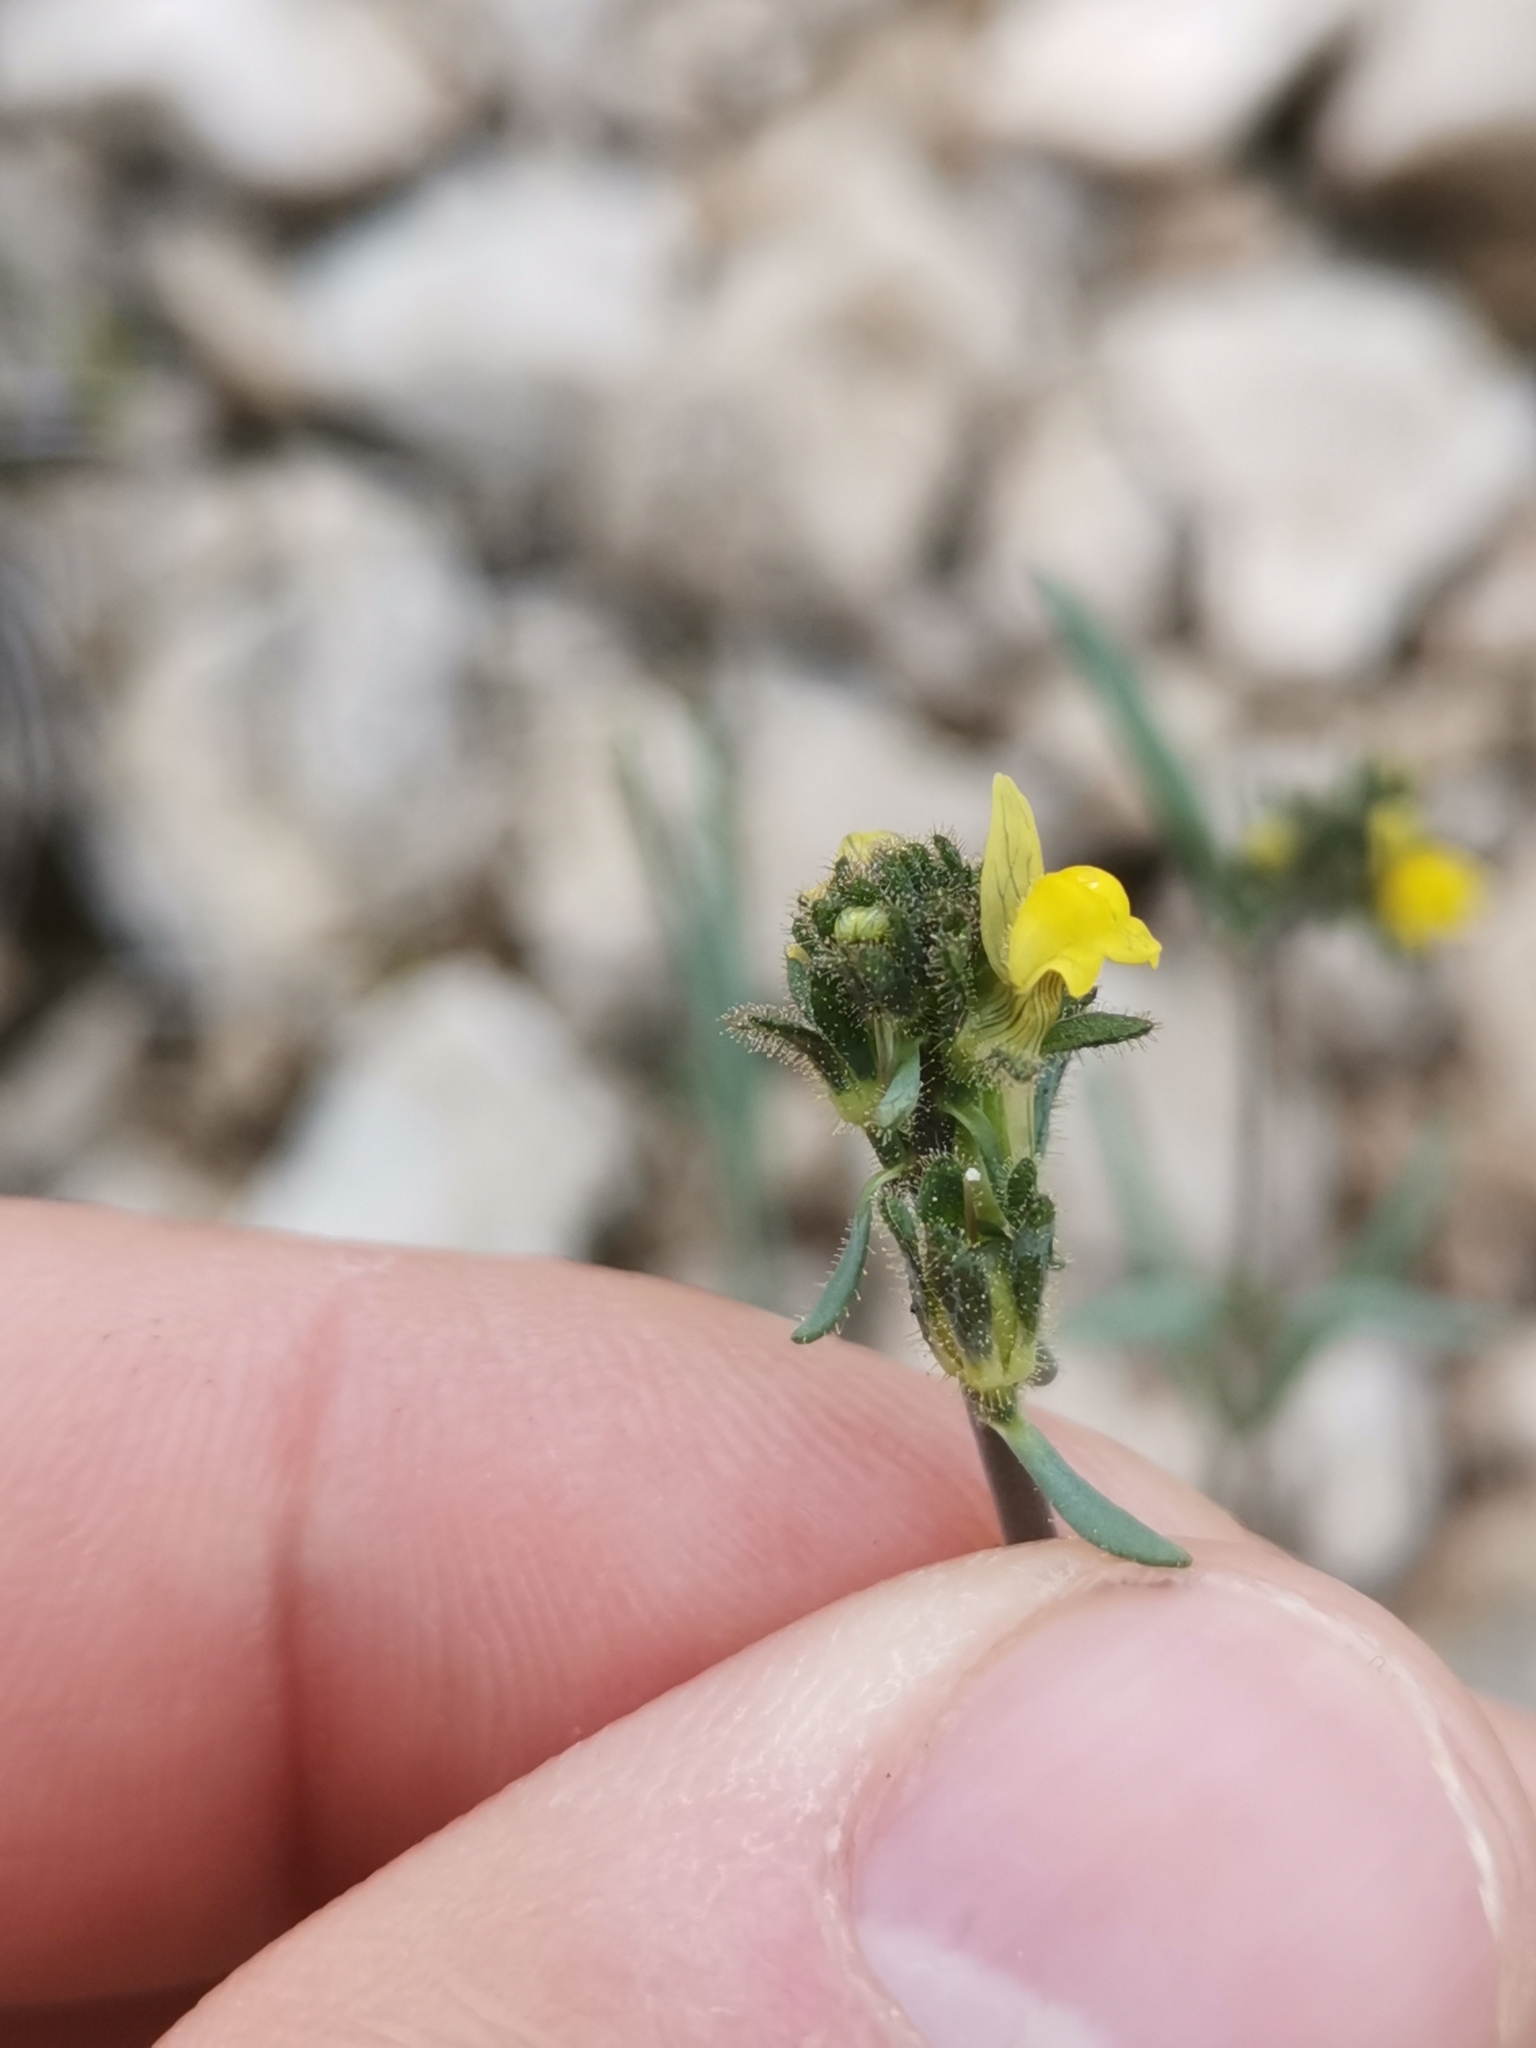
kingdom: Plantae
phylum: Tracheophyta
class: Magnoliopsida
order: Lamiales
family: Plantaginaceae
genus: Linaria
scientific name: Linaria simplex
